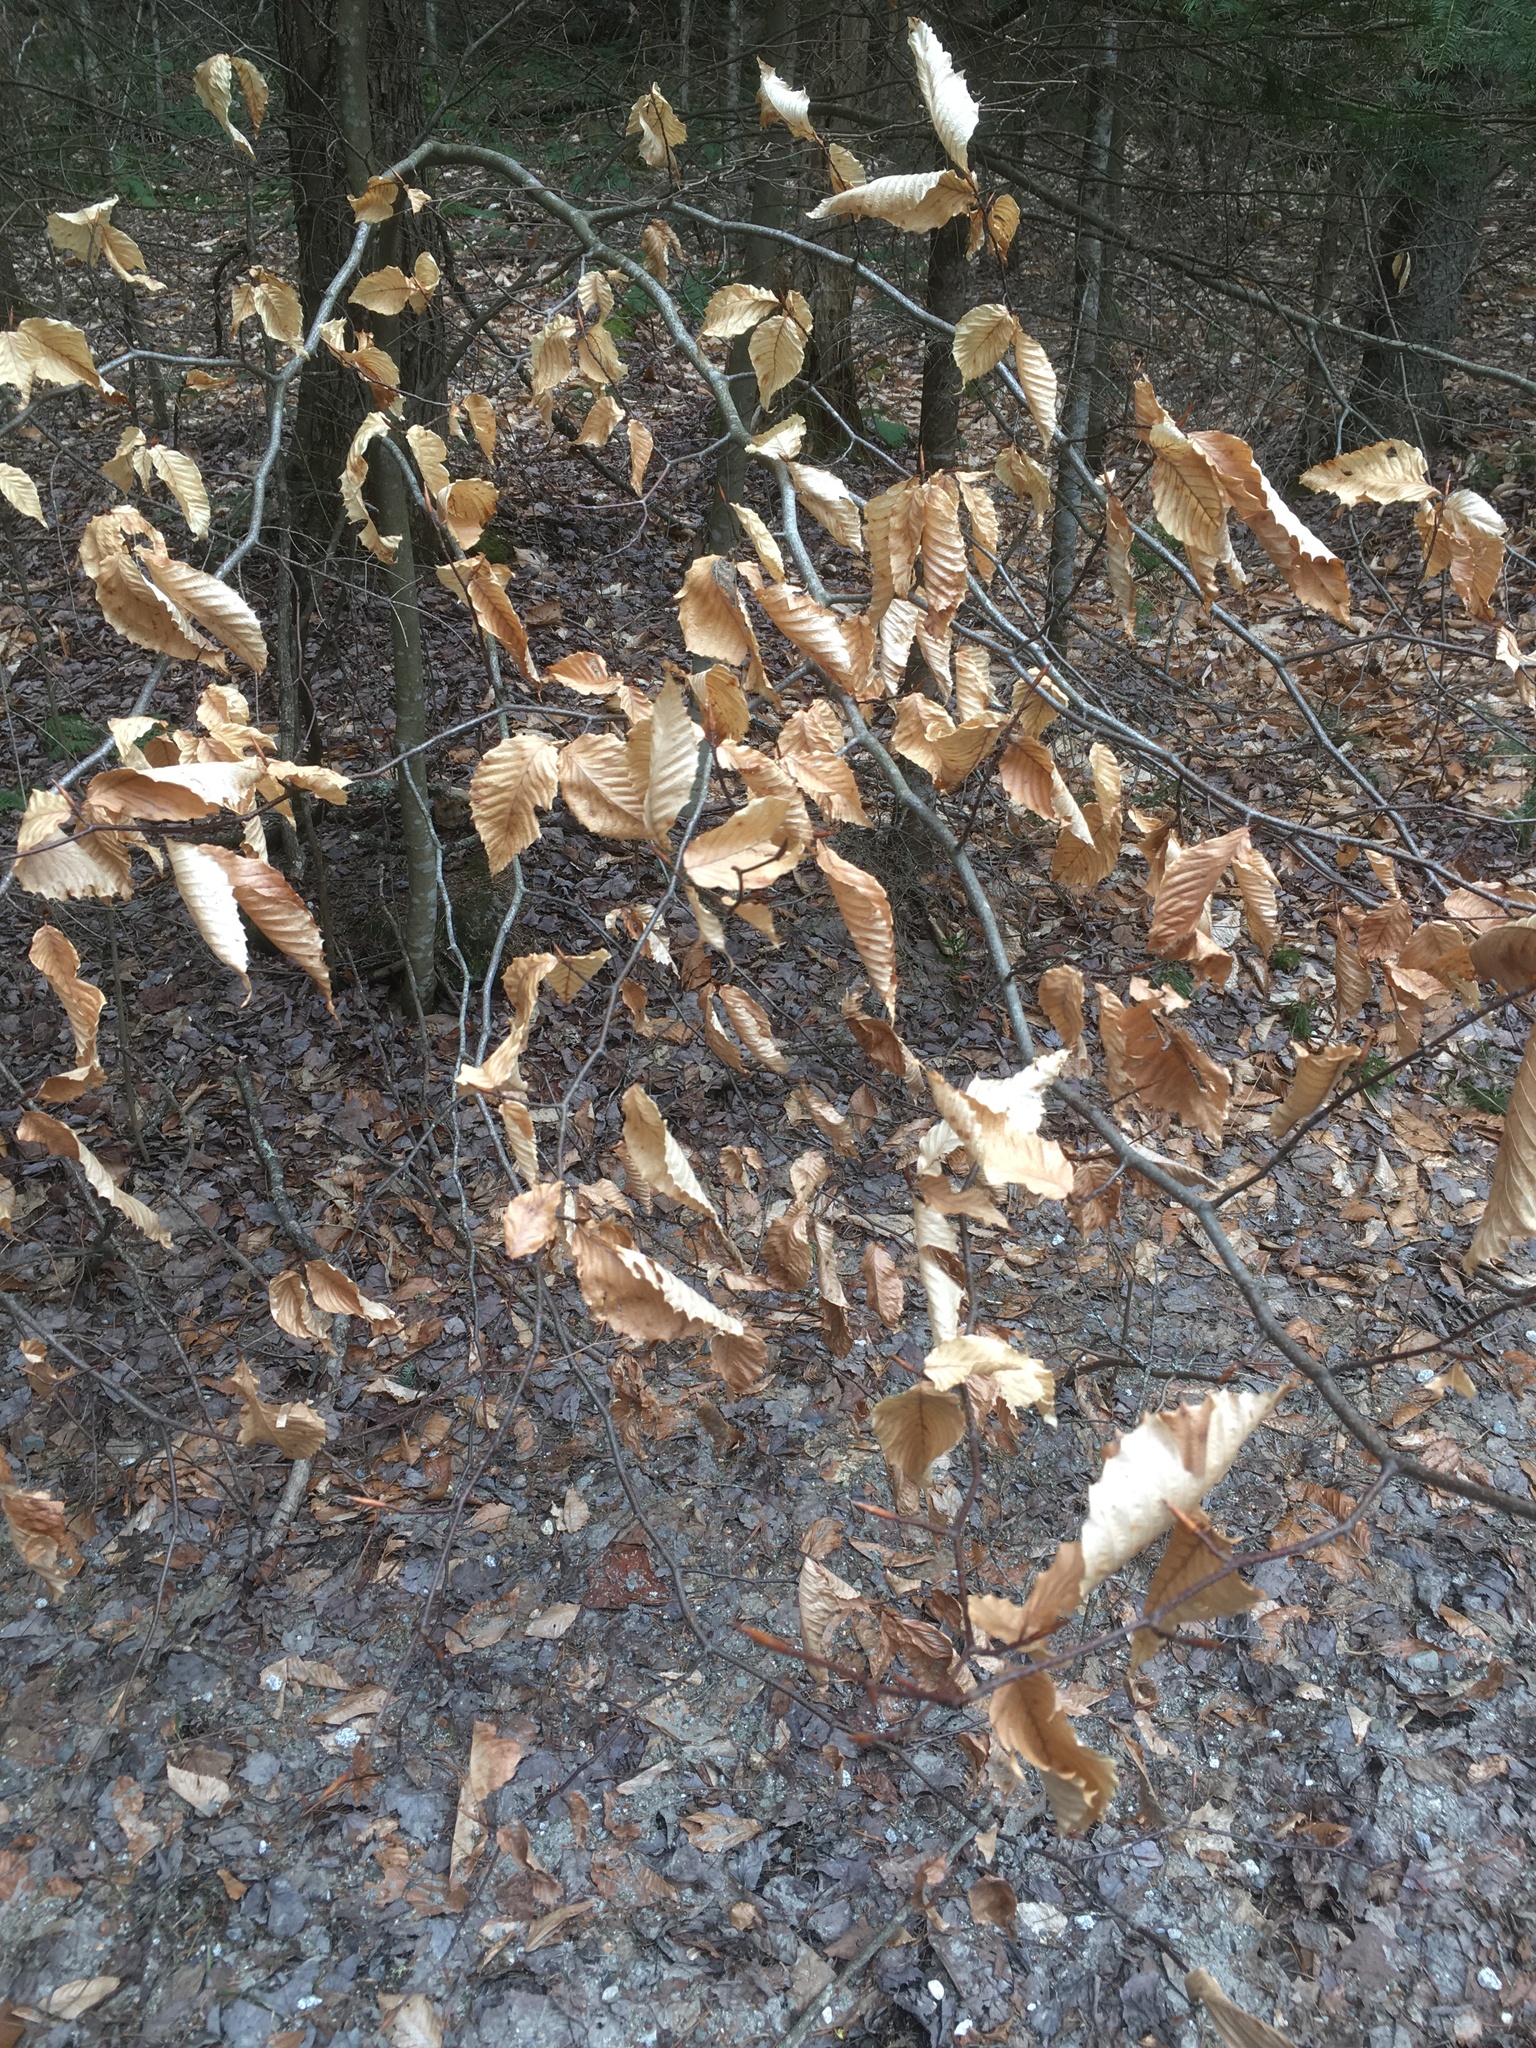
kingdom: Plantae
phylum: Tracheophyta
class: Magnoliopsida
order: Fagales
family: Fagaceae
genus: Fagus
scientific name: Fagus grandifolia
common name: American beech
